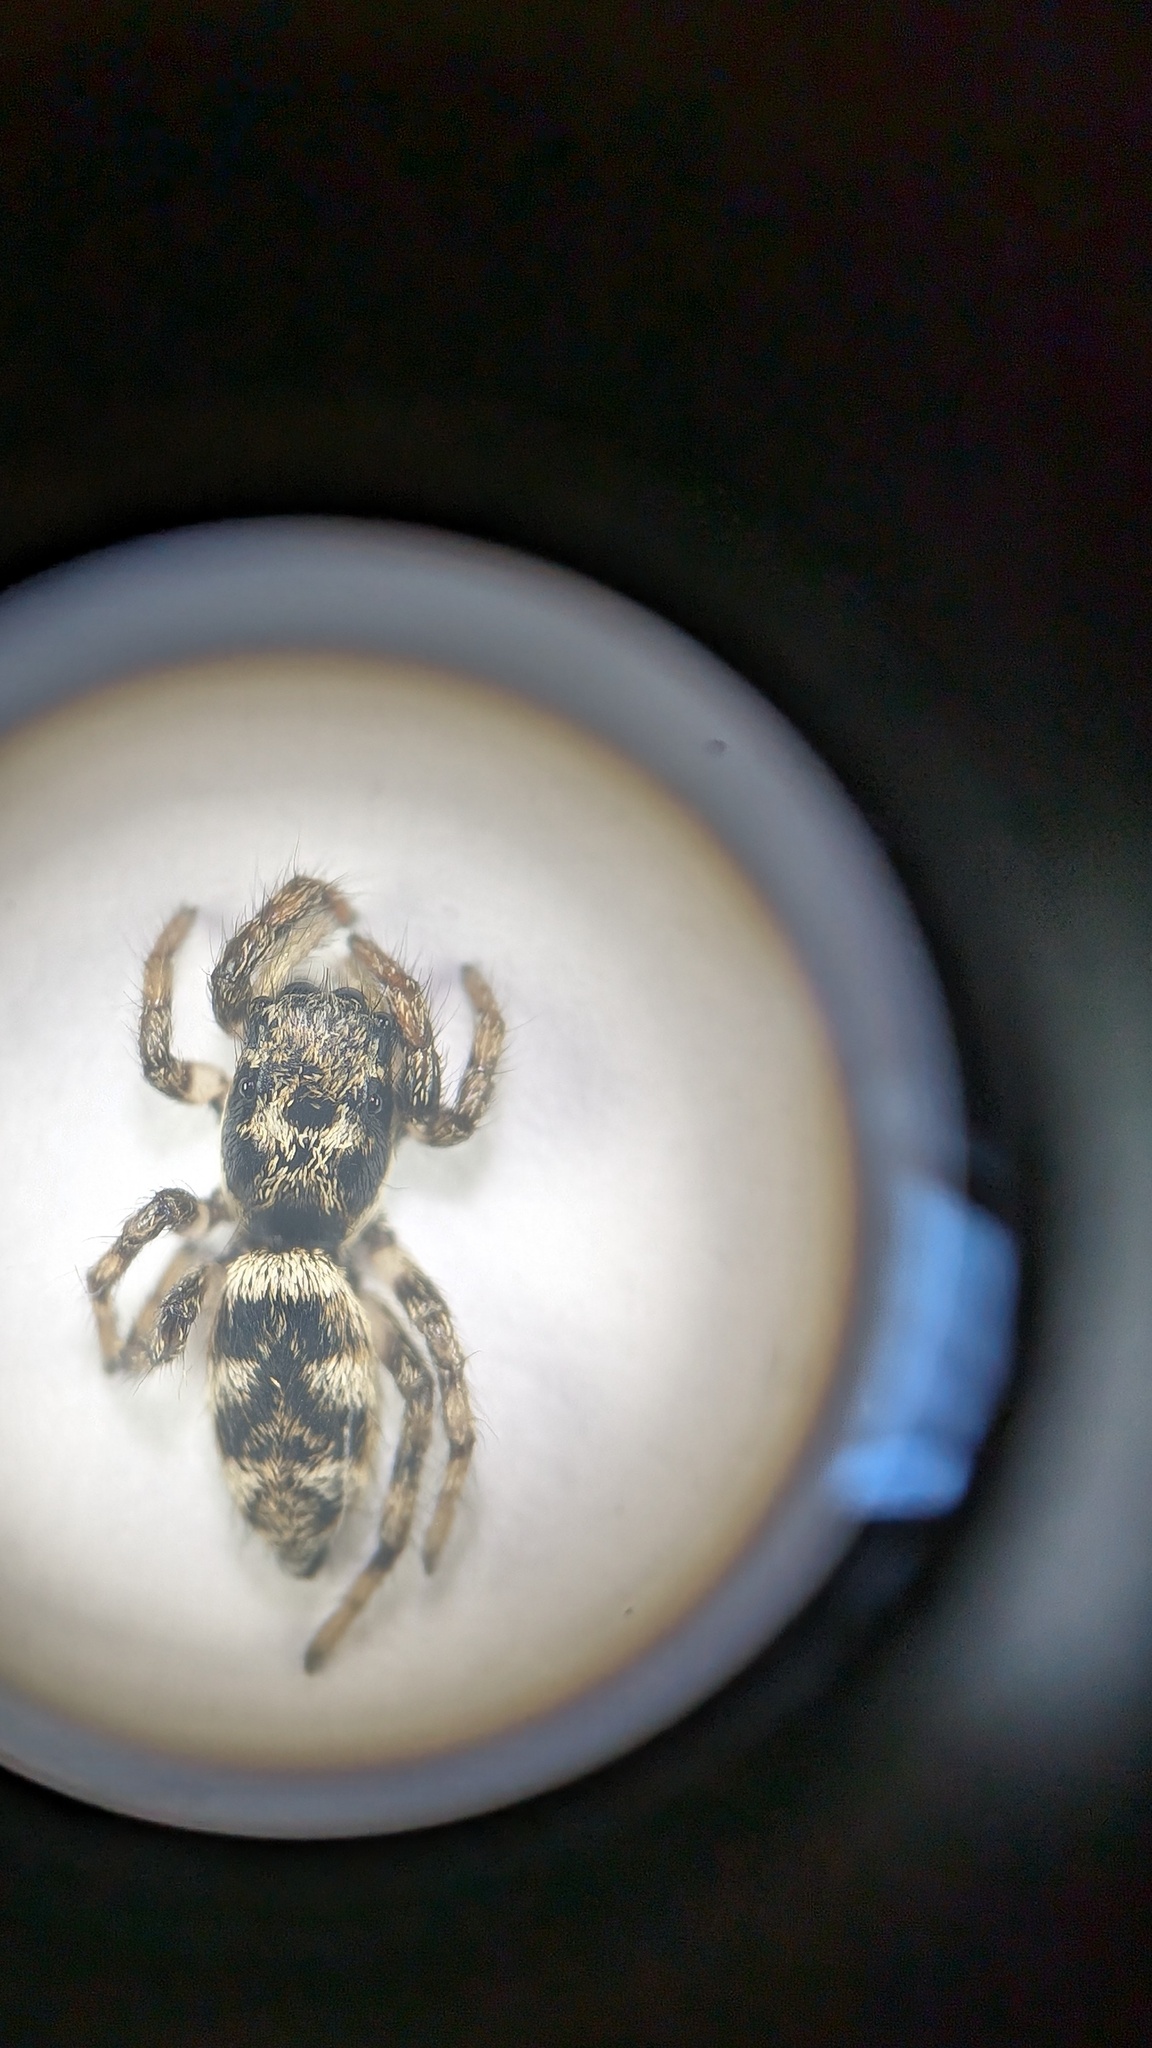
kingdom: Animalia
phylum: Arthropoda
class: Arachnida
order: Araneae
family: Salticidae
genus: Salticus
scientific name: Salticus scenicus
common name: Zebra jumper
